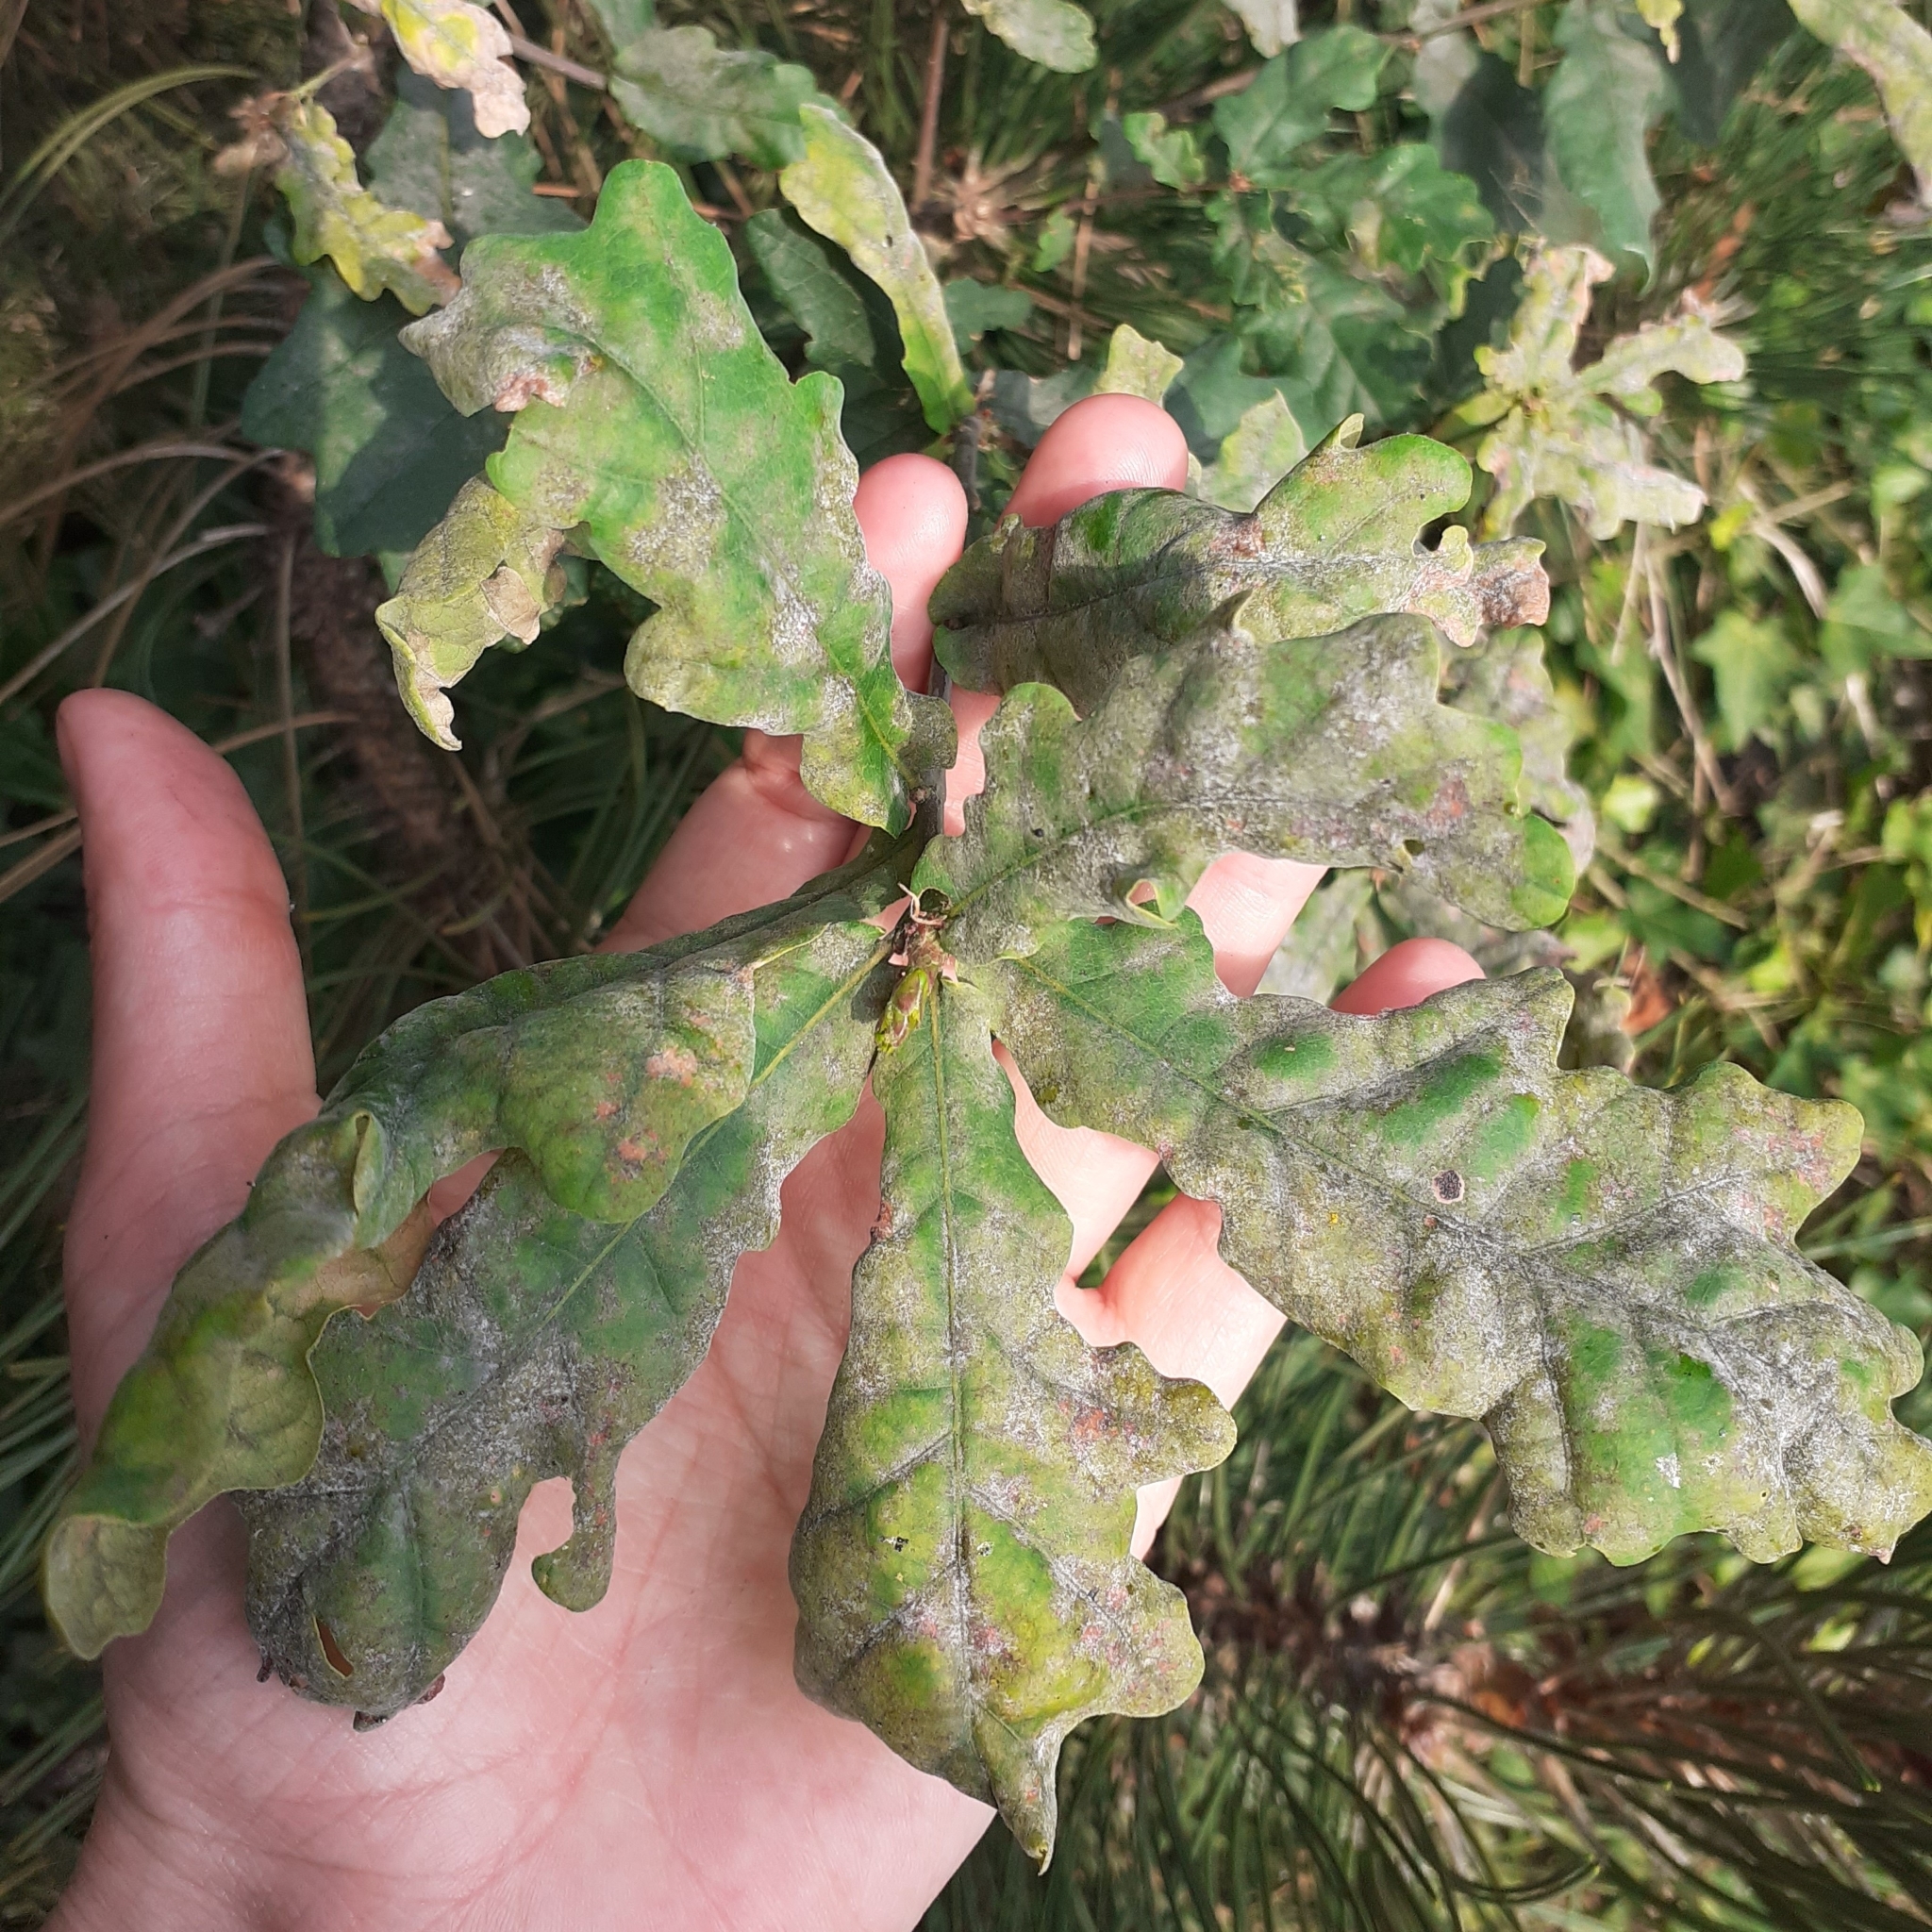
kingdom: Fungi
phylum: Ascomycota
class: Leotiomycetes
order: Helotiales
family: Erysiphaceae
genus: Erysiphe
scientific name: Erysiphe alphitoides
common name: Oak mildew
